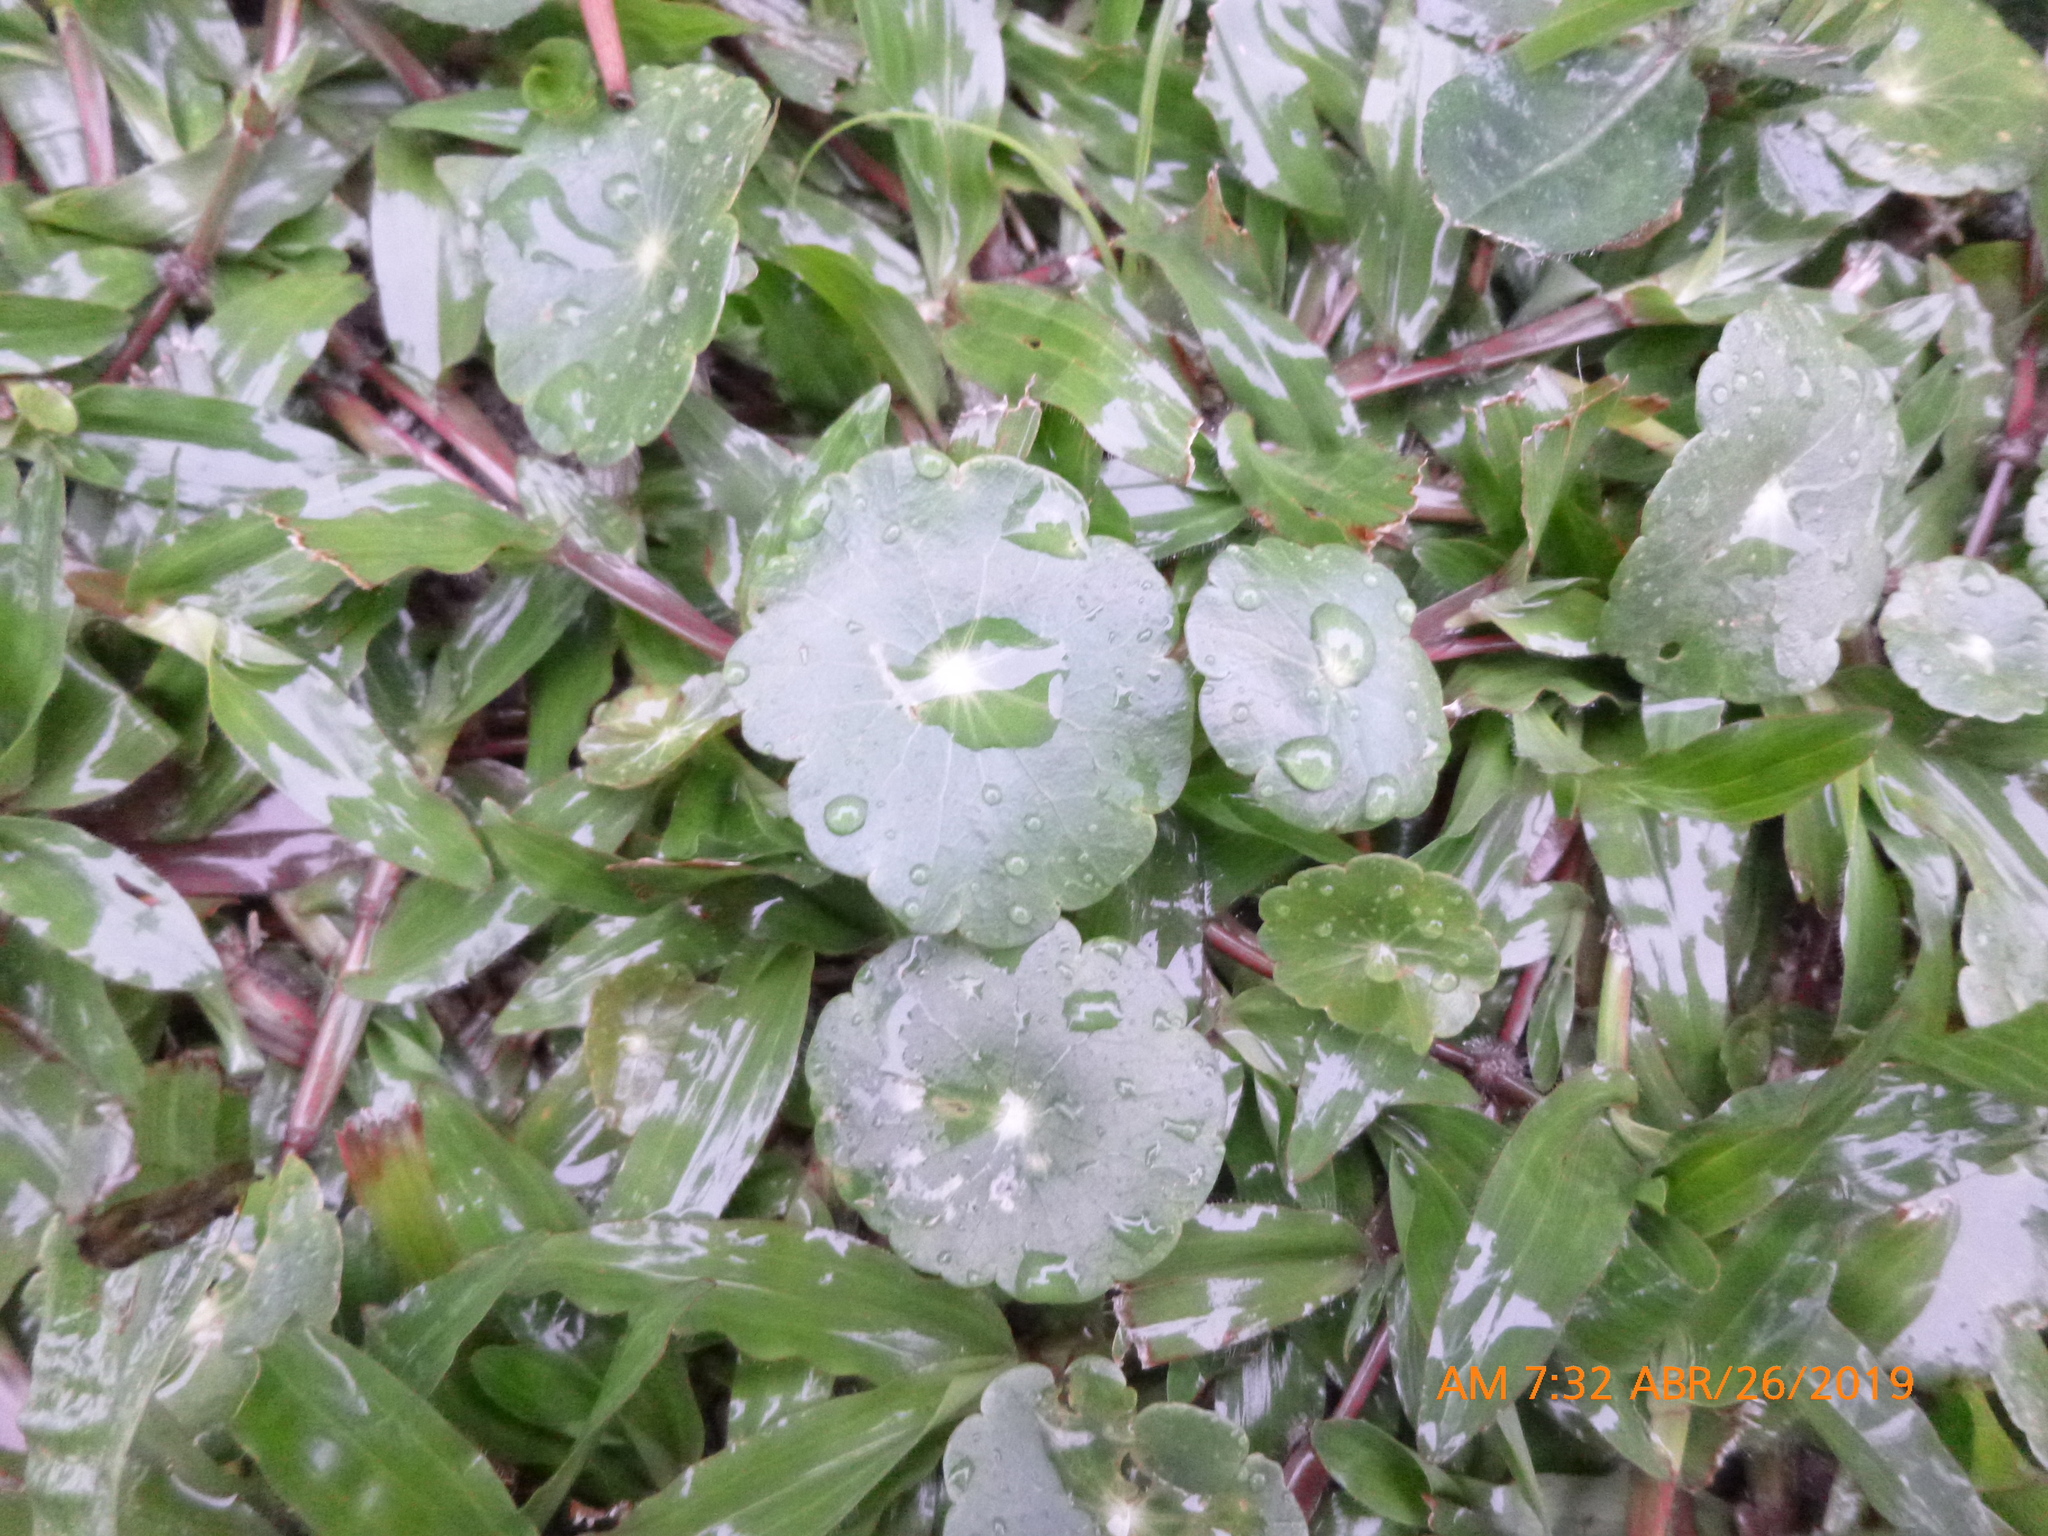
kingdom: Plantae
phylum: Tracheophyta
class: Magnoliopsida
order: Apiales
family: Araliaceae
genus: Hydrocotyle
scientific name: Hydrocotyle umbellata
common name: Water pennywort
